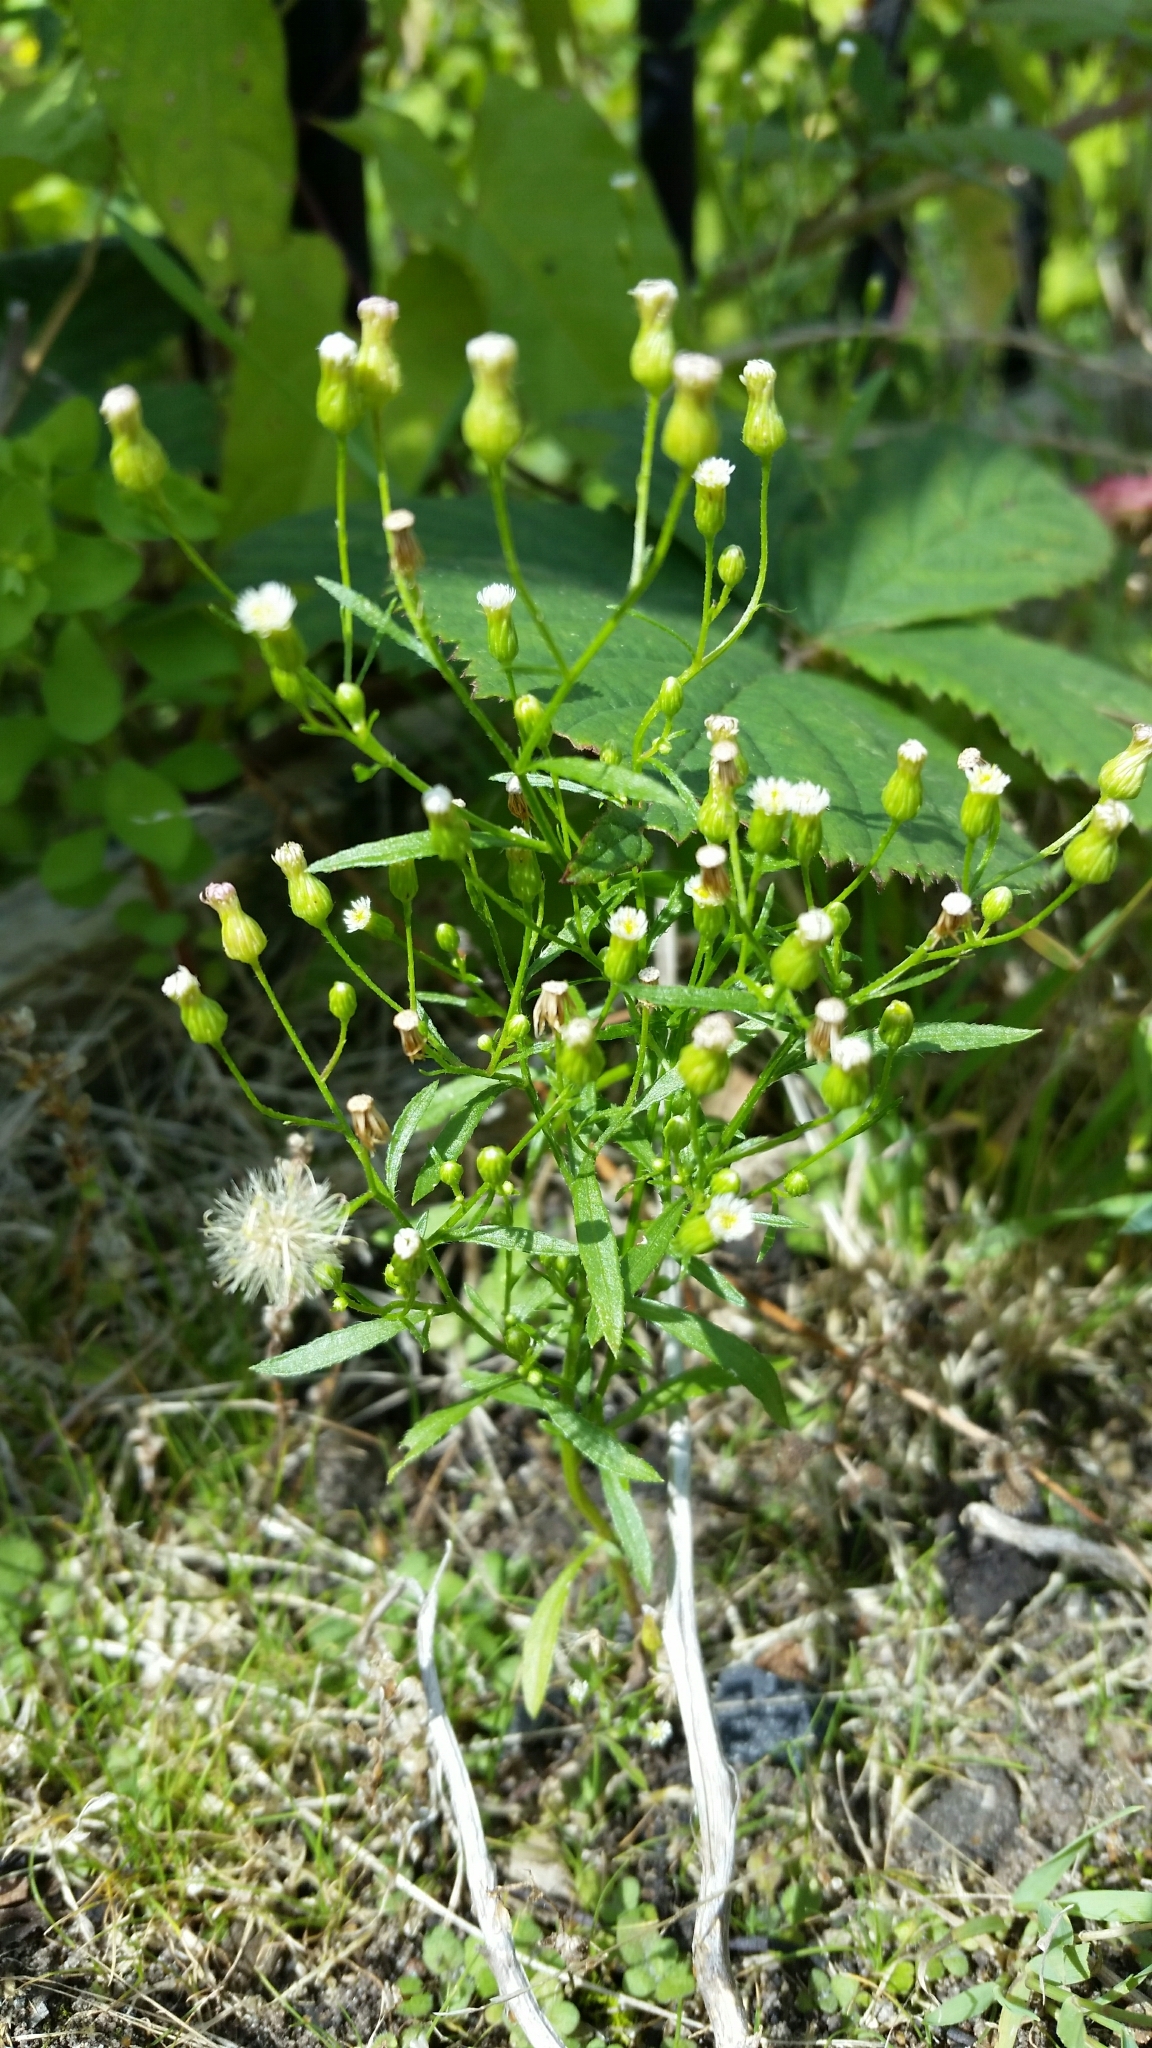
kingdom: Plantae
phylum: Tracheophyta
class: Magnoliopsida
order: Asterales
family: Asteraceae
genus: Erigeron
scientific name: Erigeron canadensis
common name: Canadian fleabane
